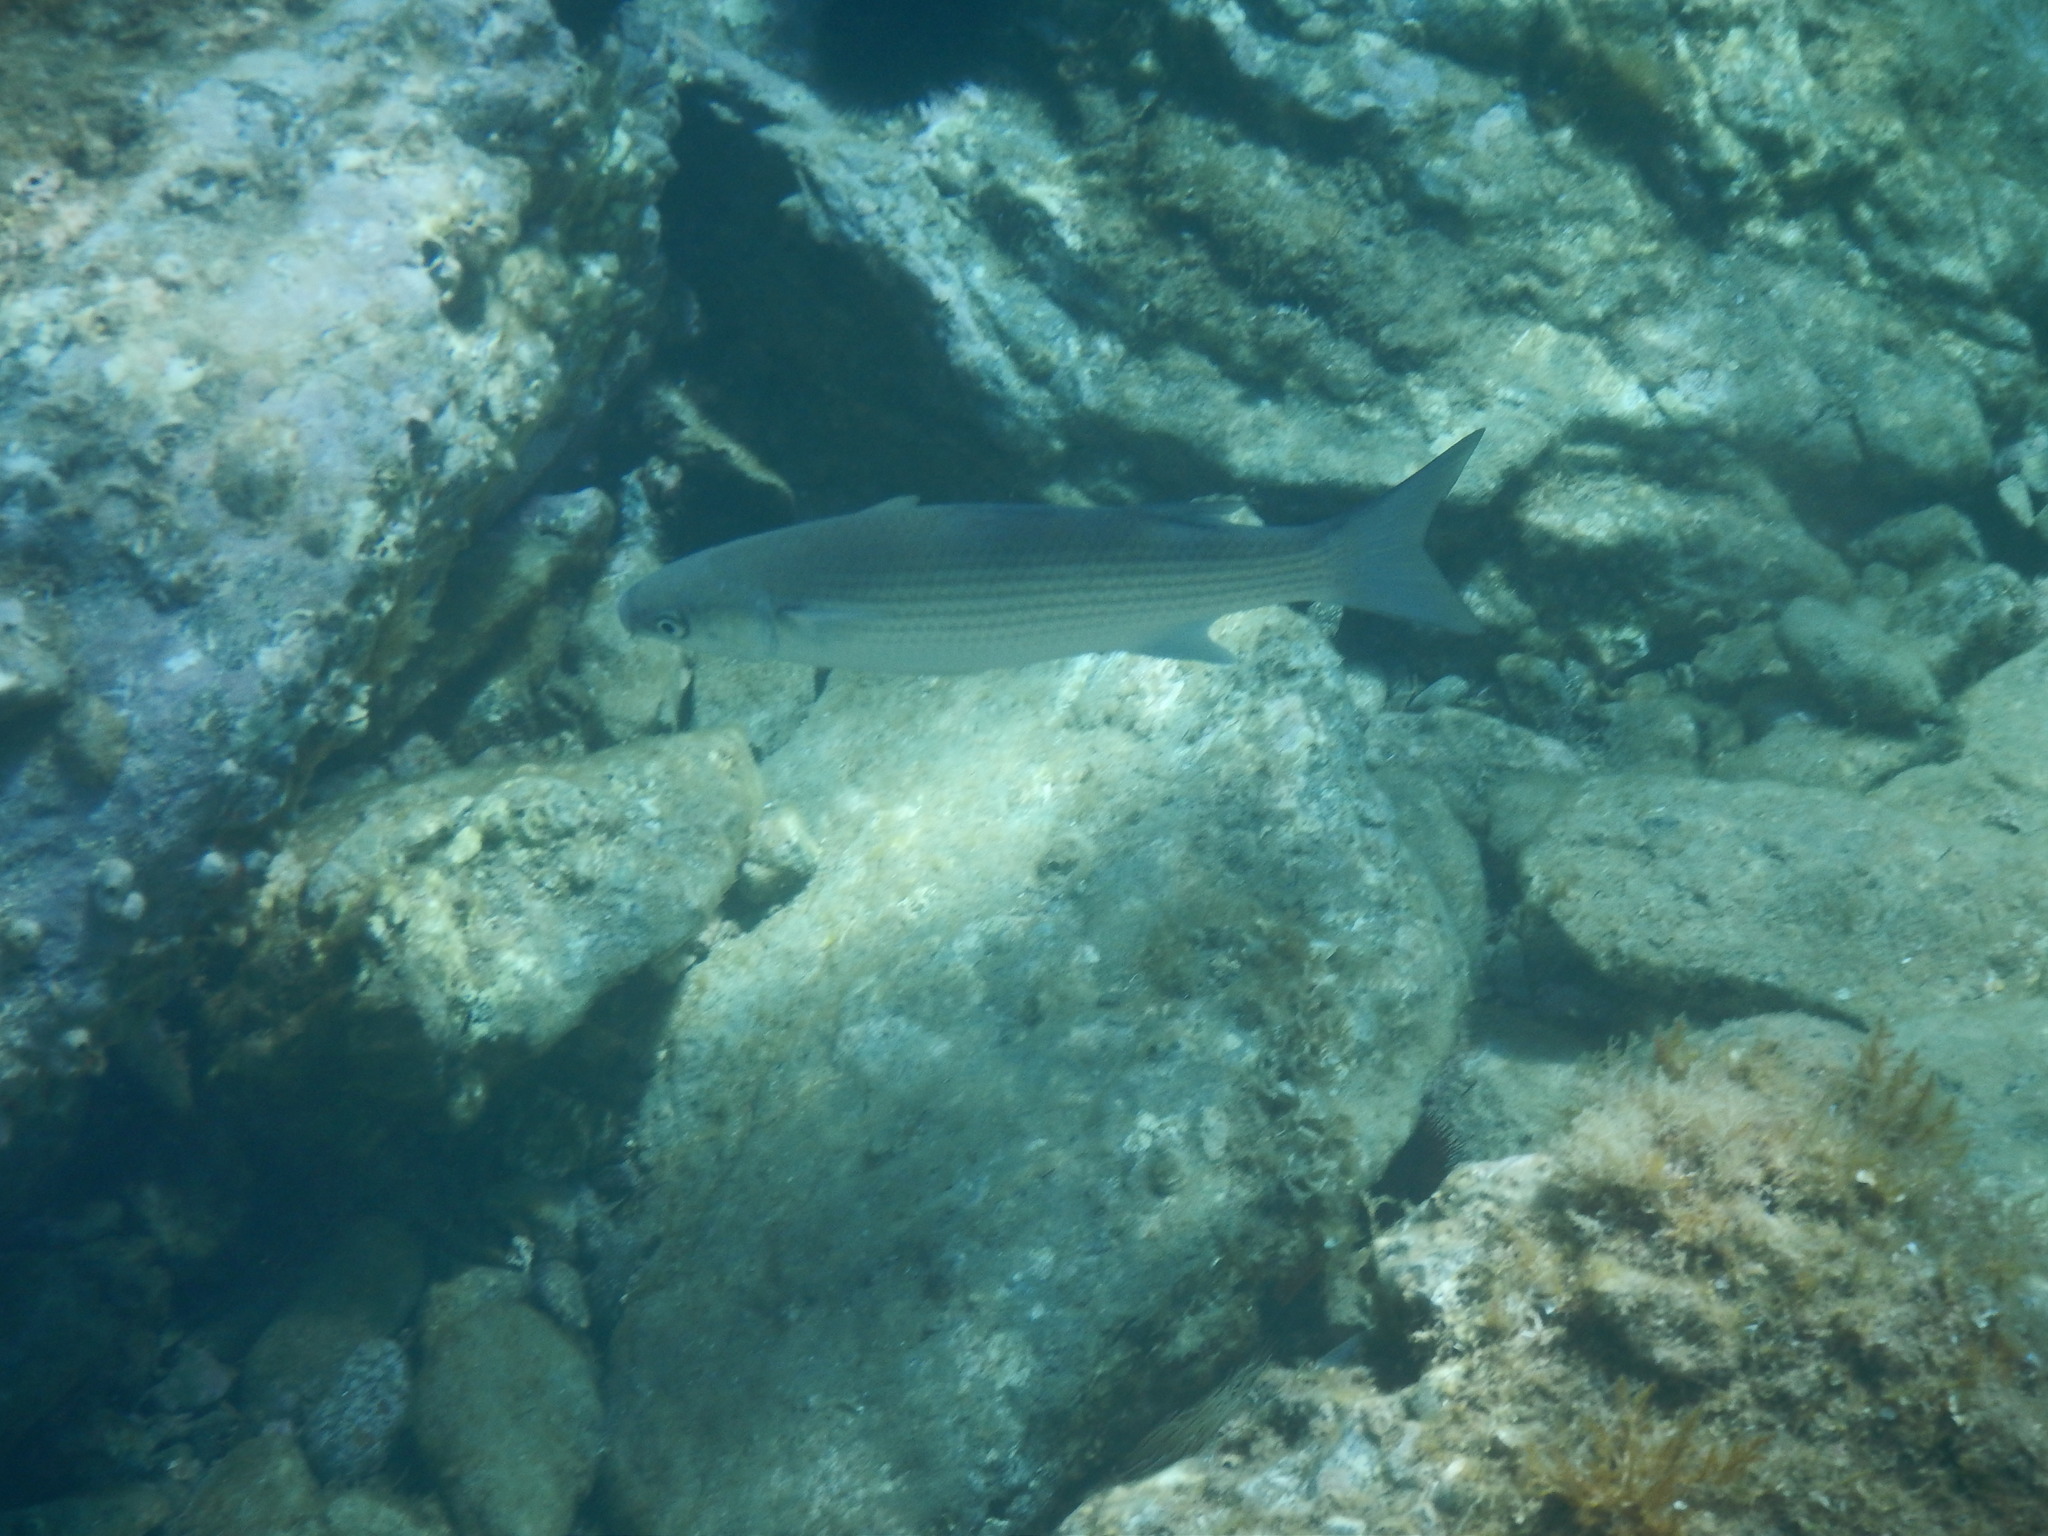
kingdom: Animalia
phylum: Chordata
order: Mugiliformes
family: Mugilidae
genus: Chelon
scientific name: Chelon labrosus
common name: Thick-lipped mullet
